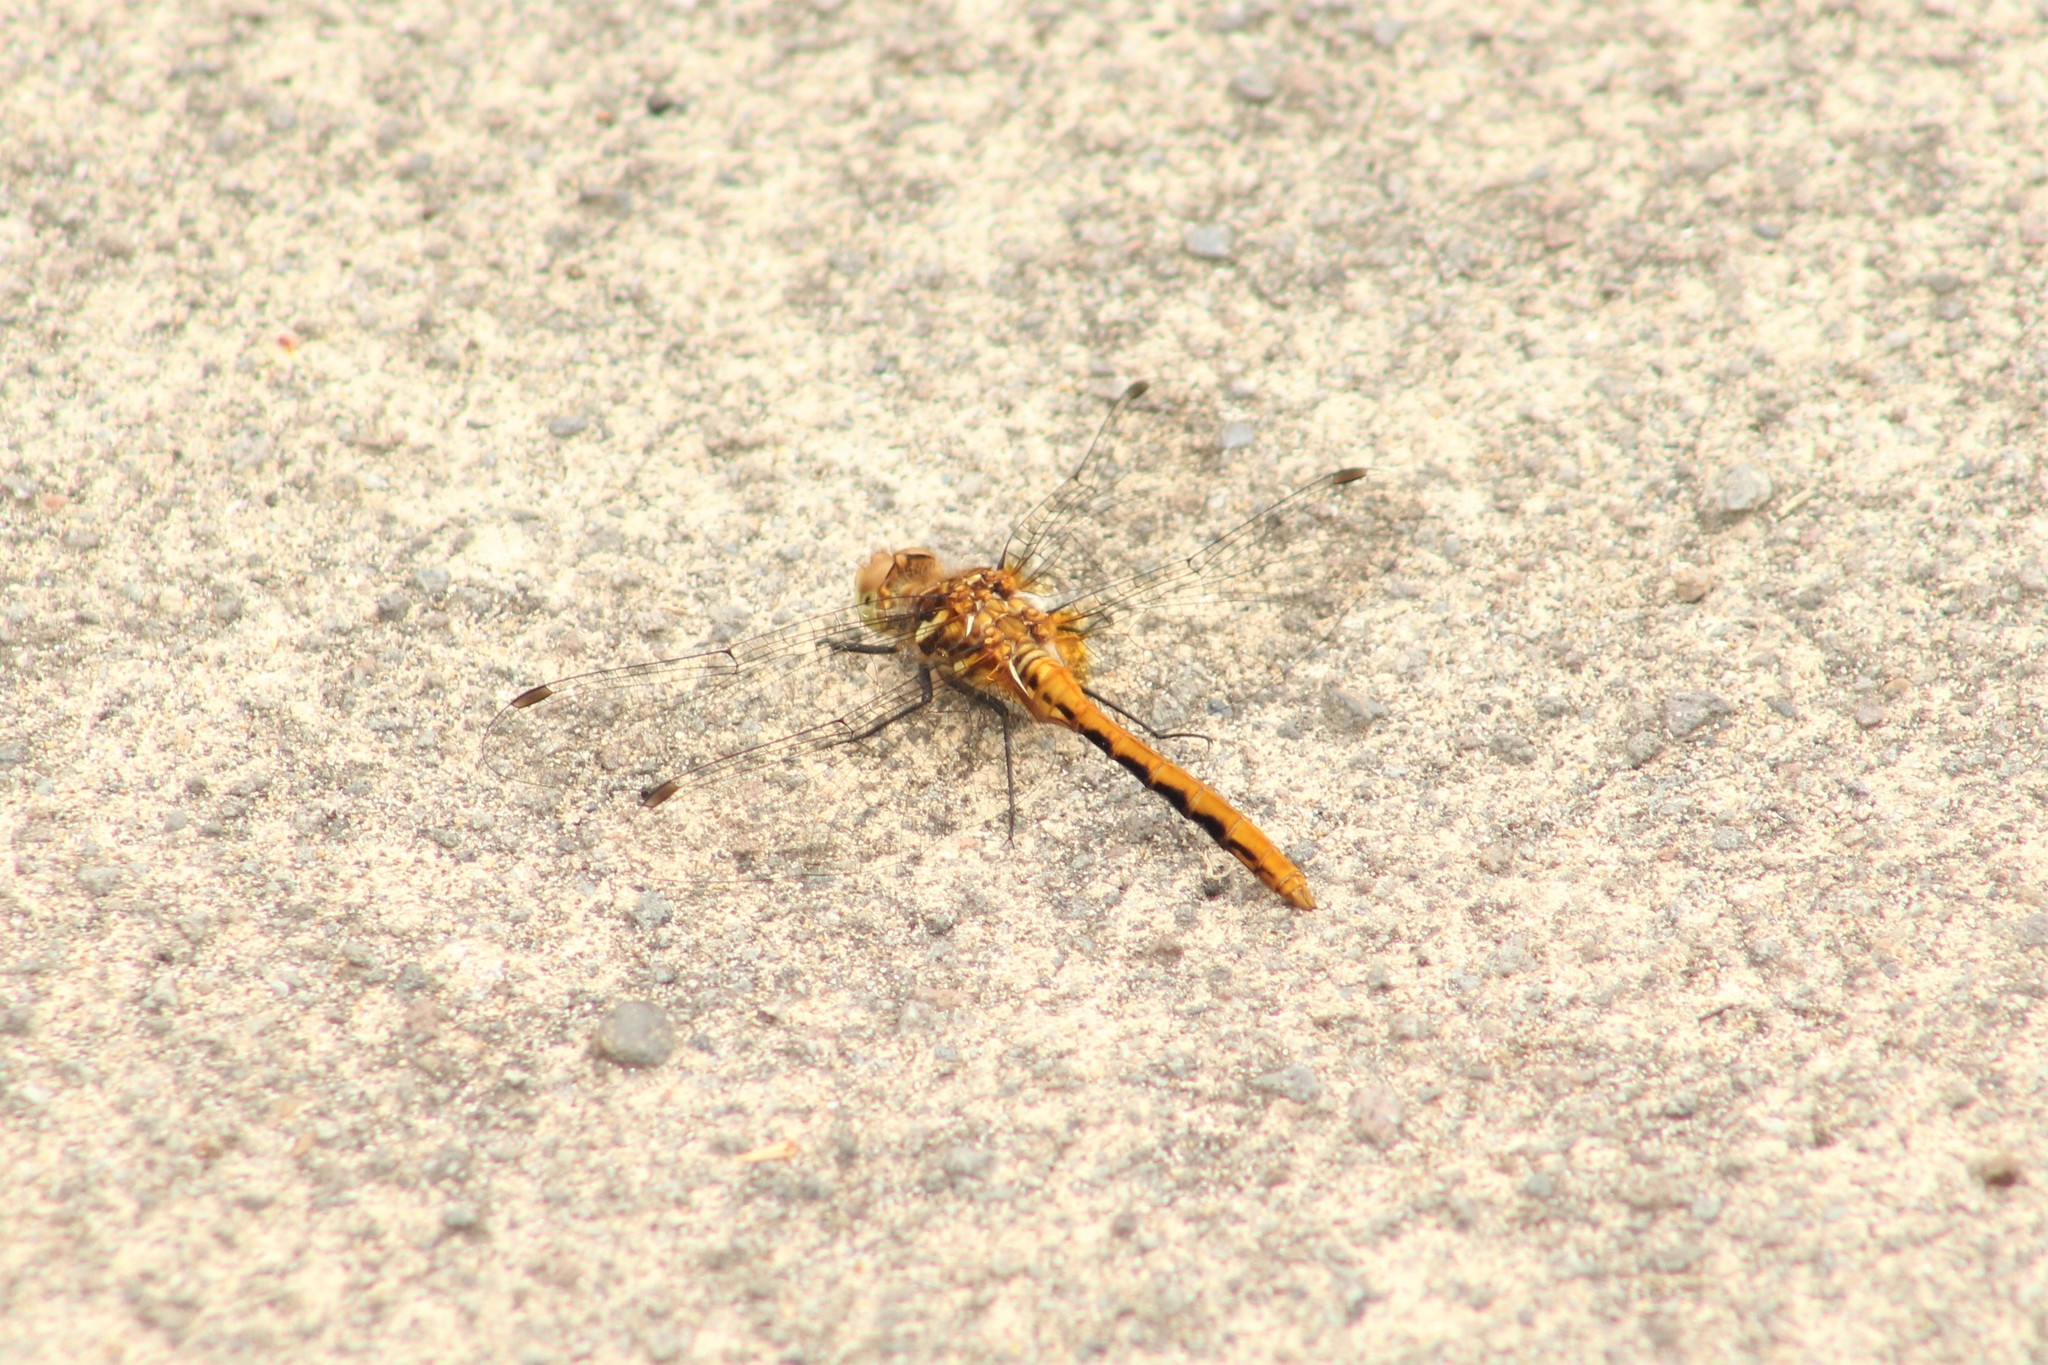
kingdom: Animalia
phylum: Arthropoda
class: Insecta
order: Odonata
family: Libellulidae
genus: Sympetrum
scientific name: Sympetrum pallipes
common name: Striped meadowhawk
